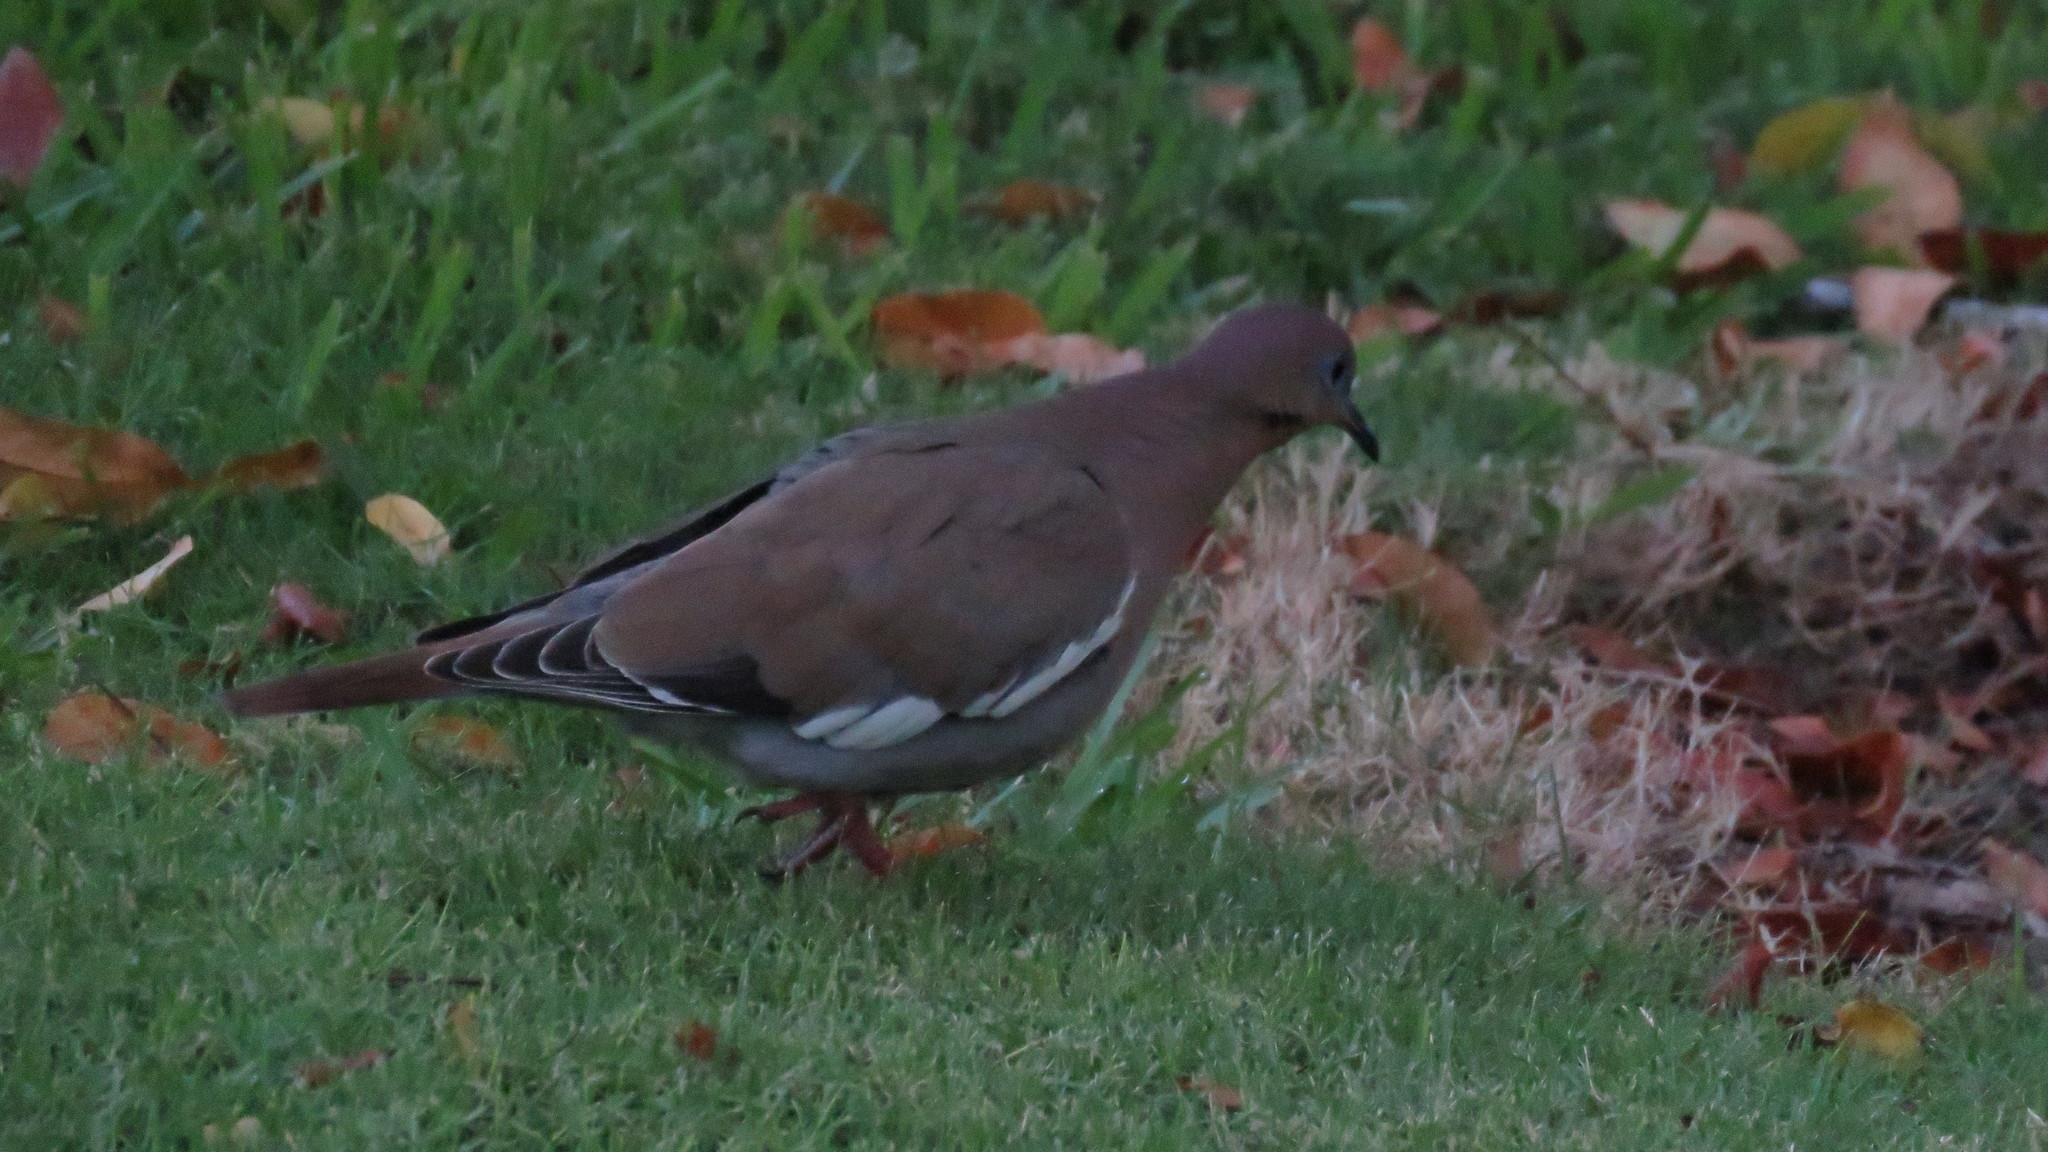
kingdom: Animalia
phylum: Chordata
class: Aves
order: Columbiformes
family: Columbidae
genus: Zenaida
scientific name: Zenaida asiatica
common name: White-winged dove
